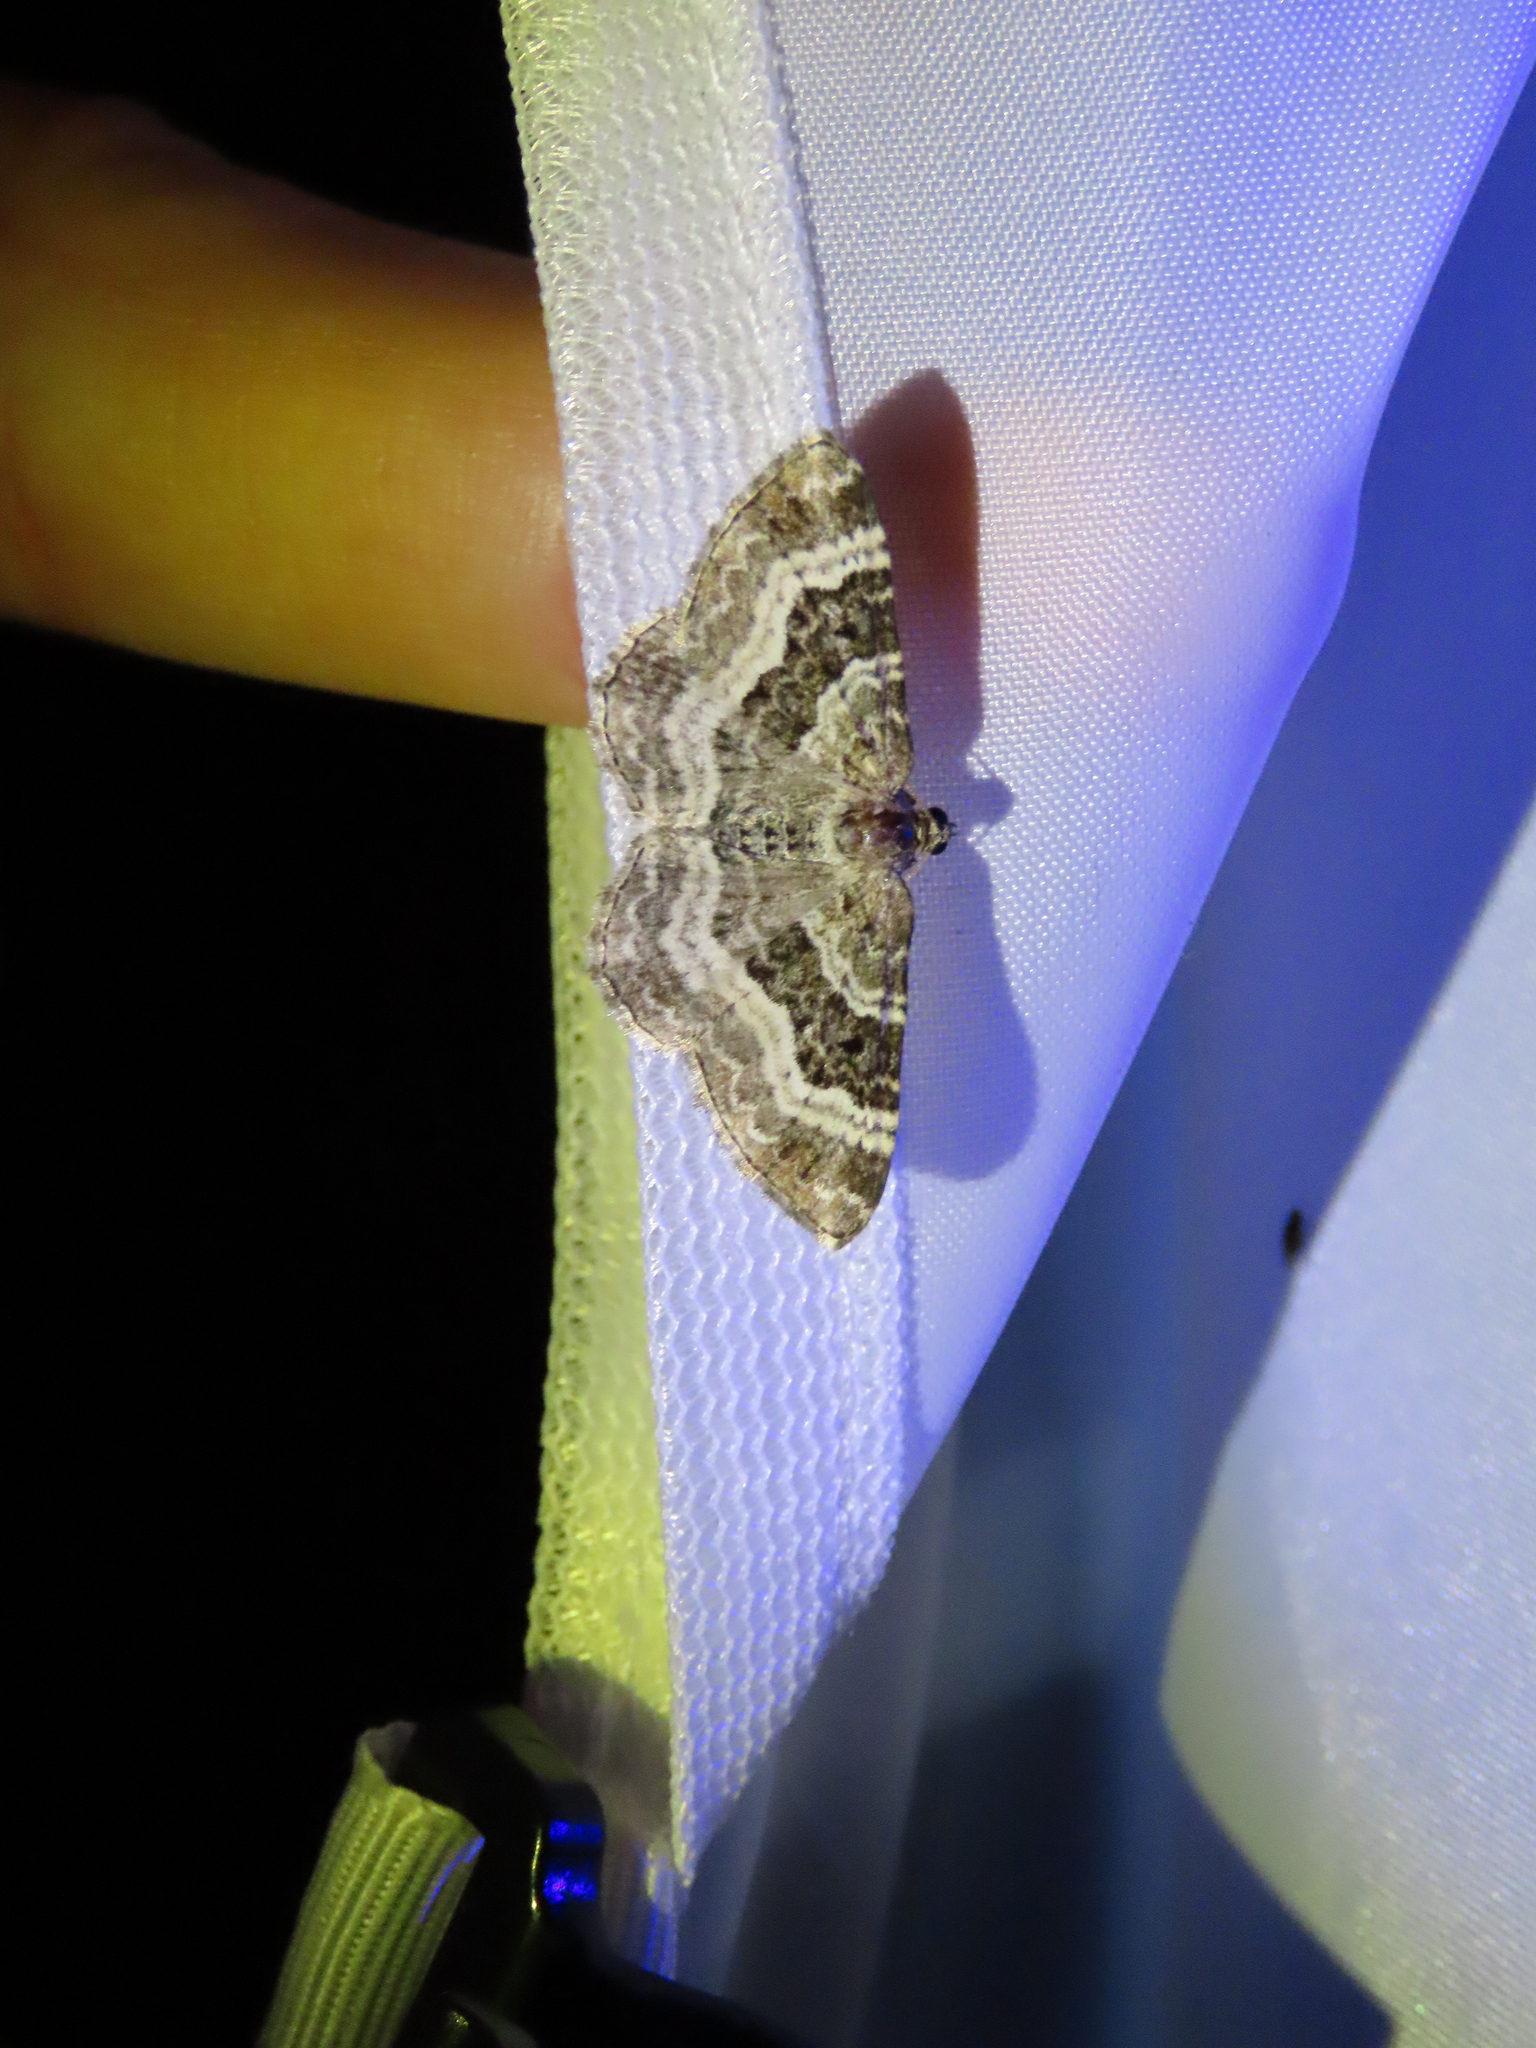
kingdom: Animalia
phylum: Arthropoda
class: Insecta
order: Lepidoptera
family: Geometridae
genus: Epirrhoe
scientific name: Epirrhoe alternata
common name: Common carpet
